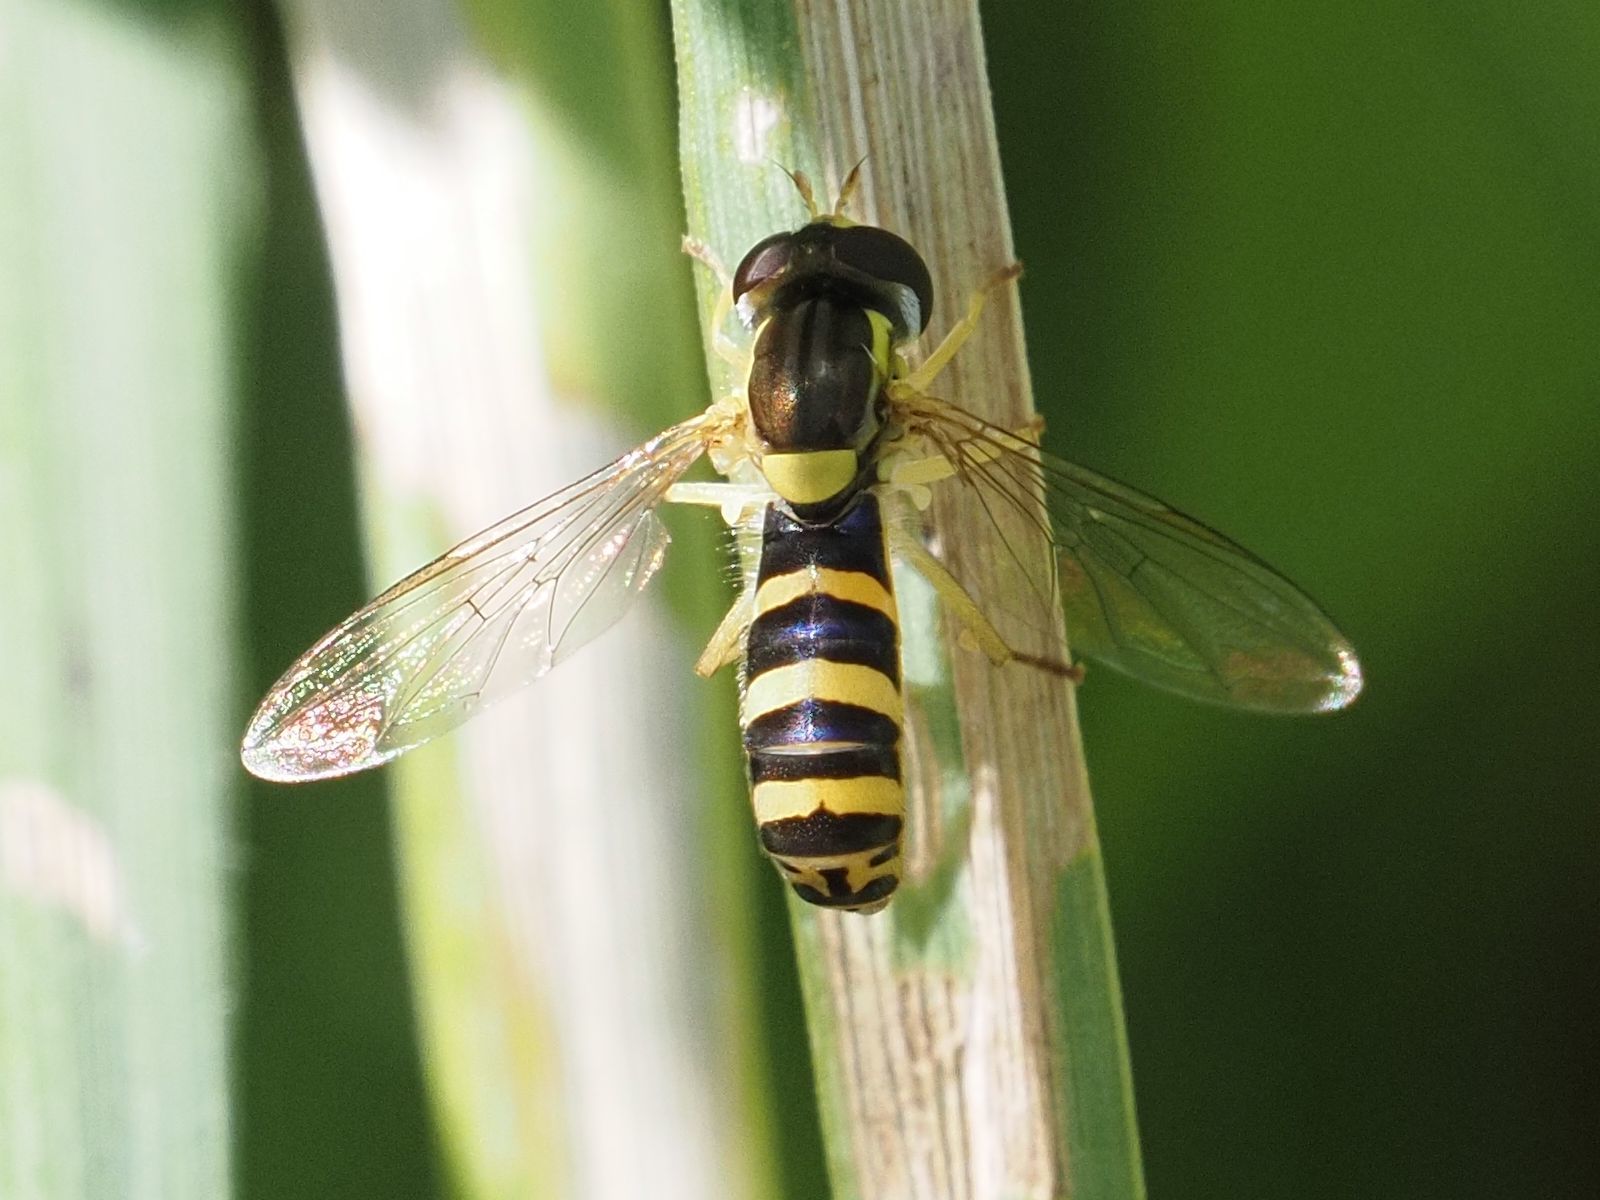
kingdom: Animalia
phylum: Arthropoda
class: Insecta
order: Diptera
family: Syrphidae
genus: Sphaerophoria
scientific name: Sphaerophoria
